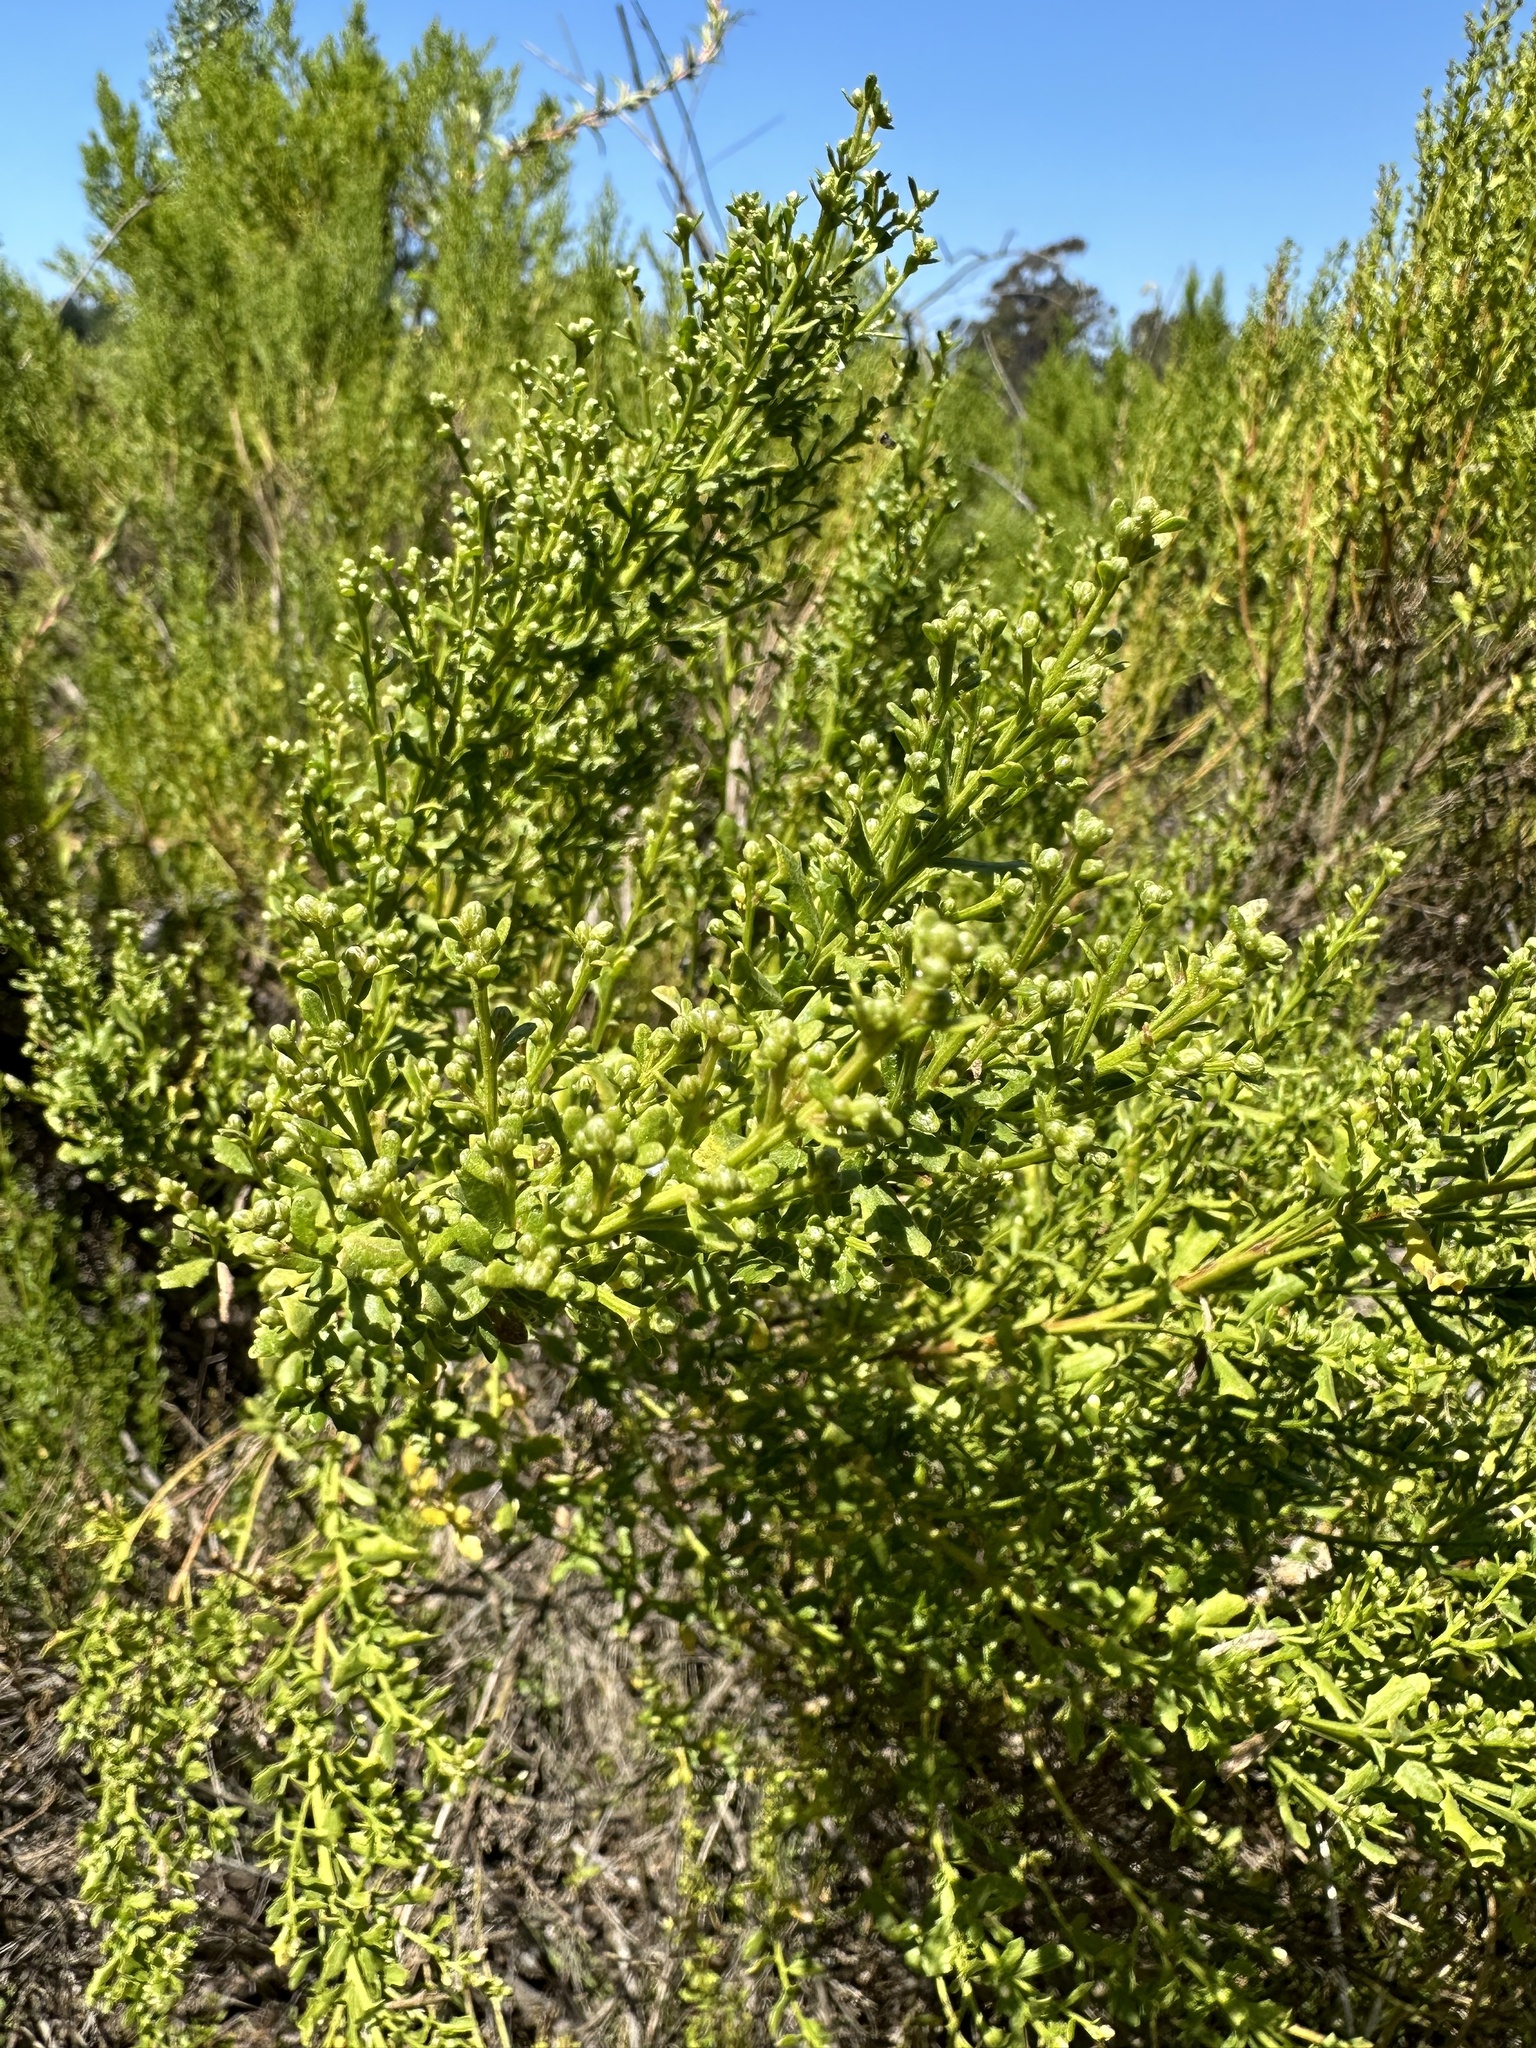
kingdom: Plantae
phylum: Tracheophyta
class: Magnoliopsida
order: Asterales
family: Asteraceae
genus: Baccharis
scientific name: Baccharis pilularis
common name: Coyotebrush
